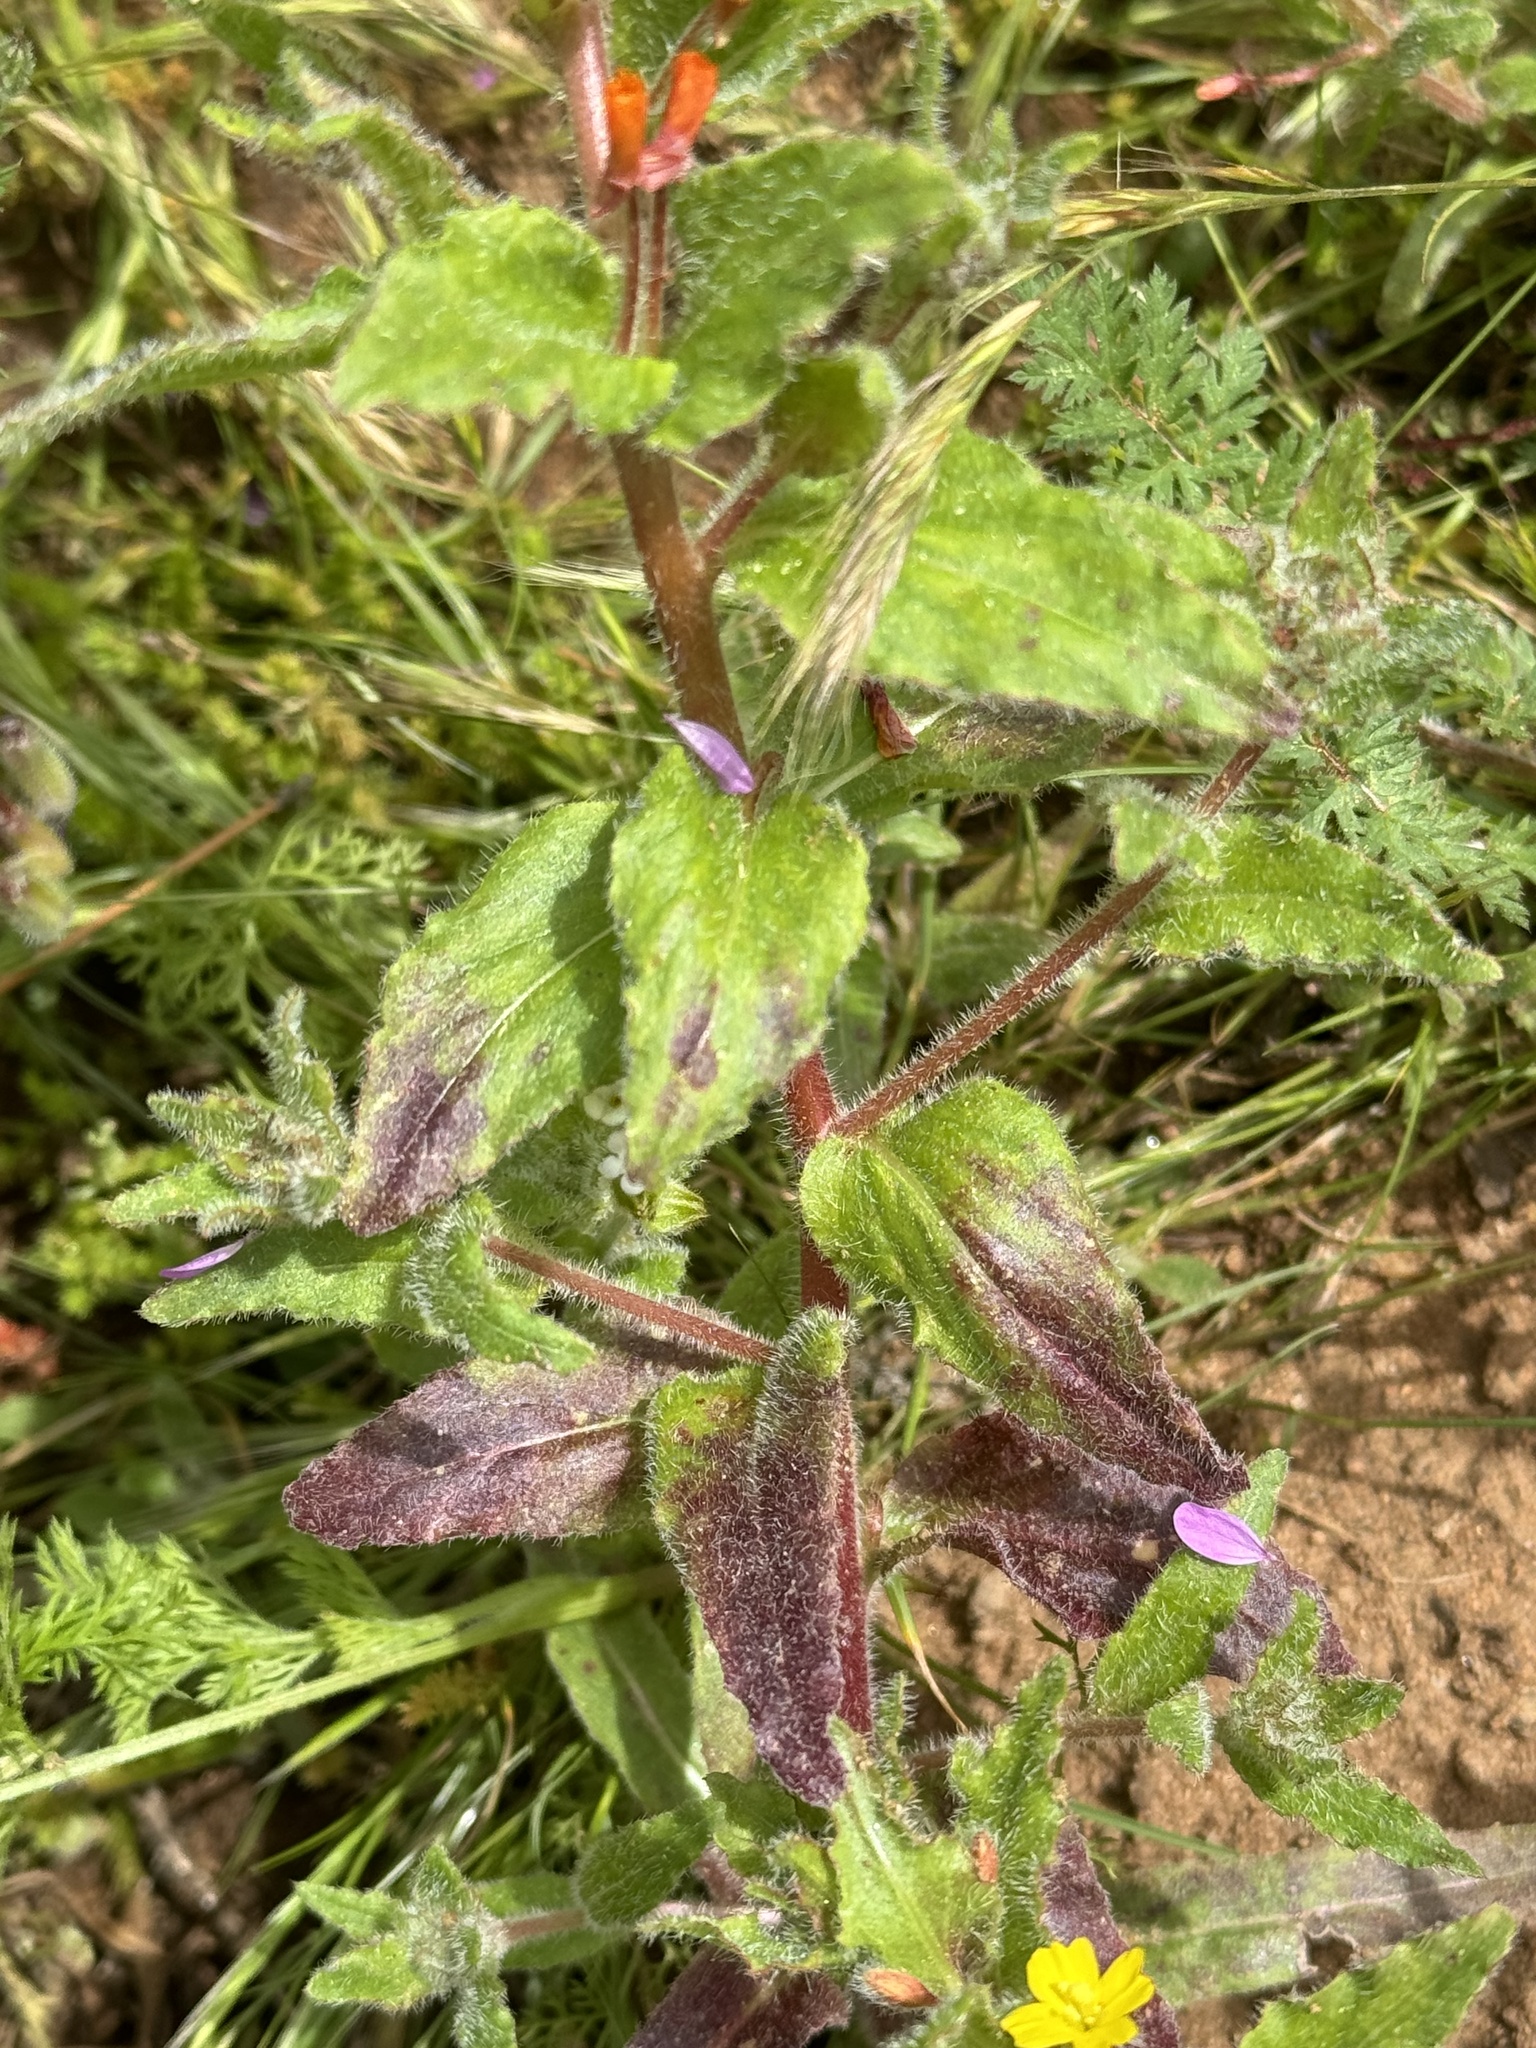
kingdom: Plantae
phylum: Tracheophyta
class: Magnoliopsida
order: Myrtales
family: Onagraceae
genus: Camissoniopsis
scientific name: Camissoniopsis hirtella
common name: Santa cruz island suncup
